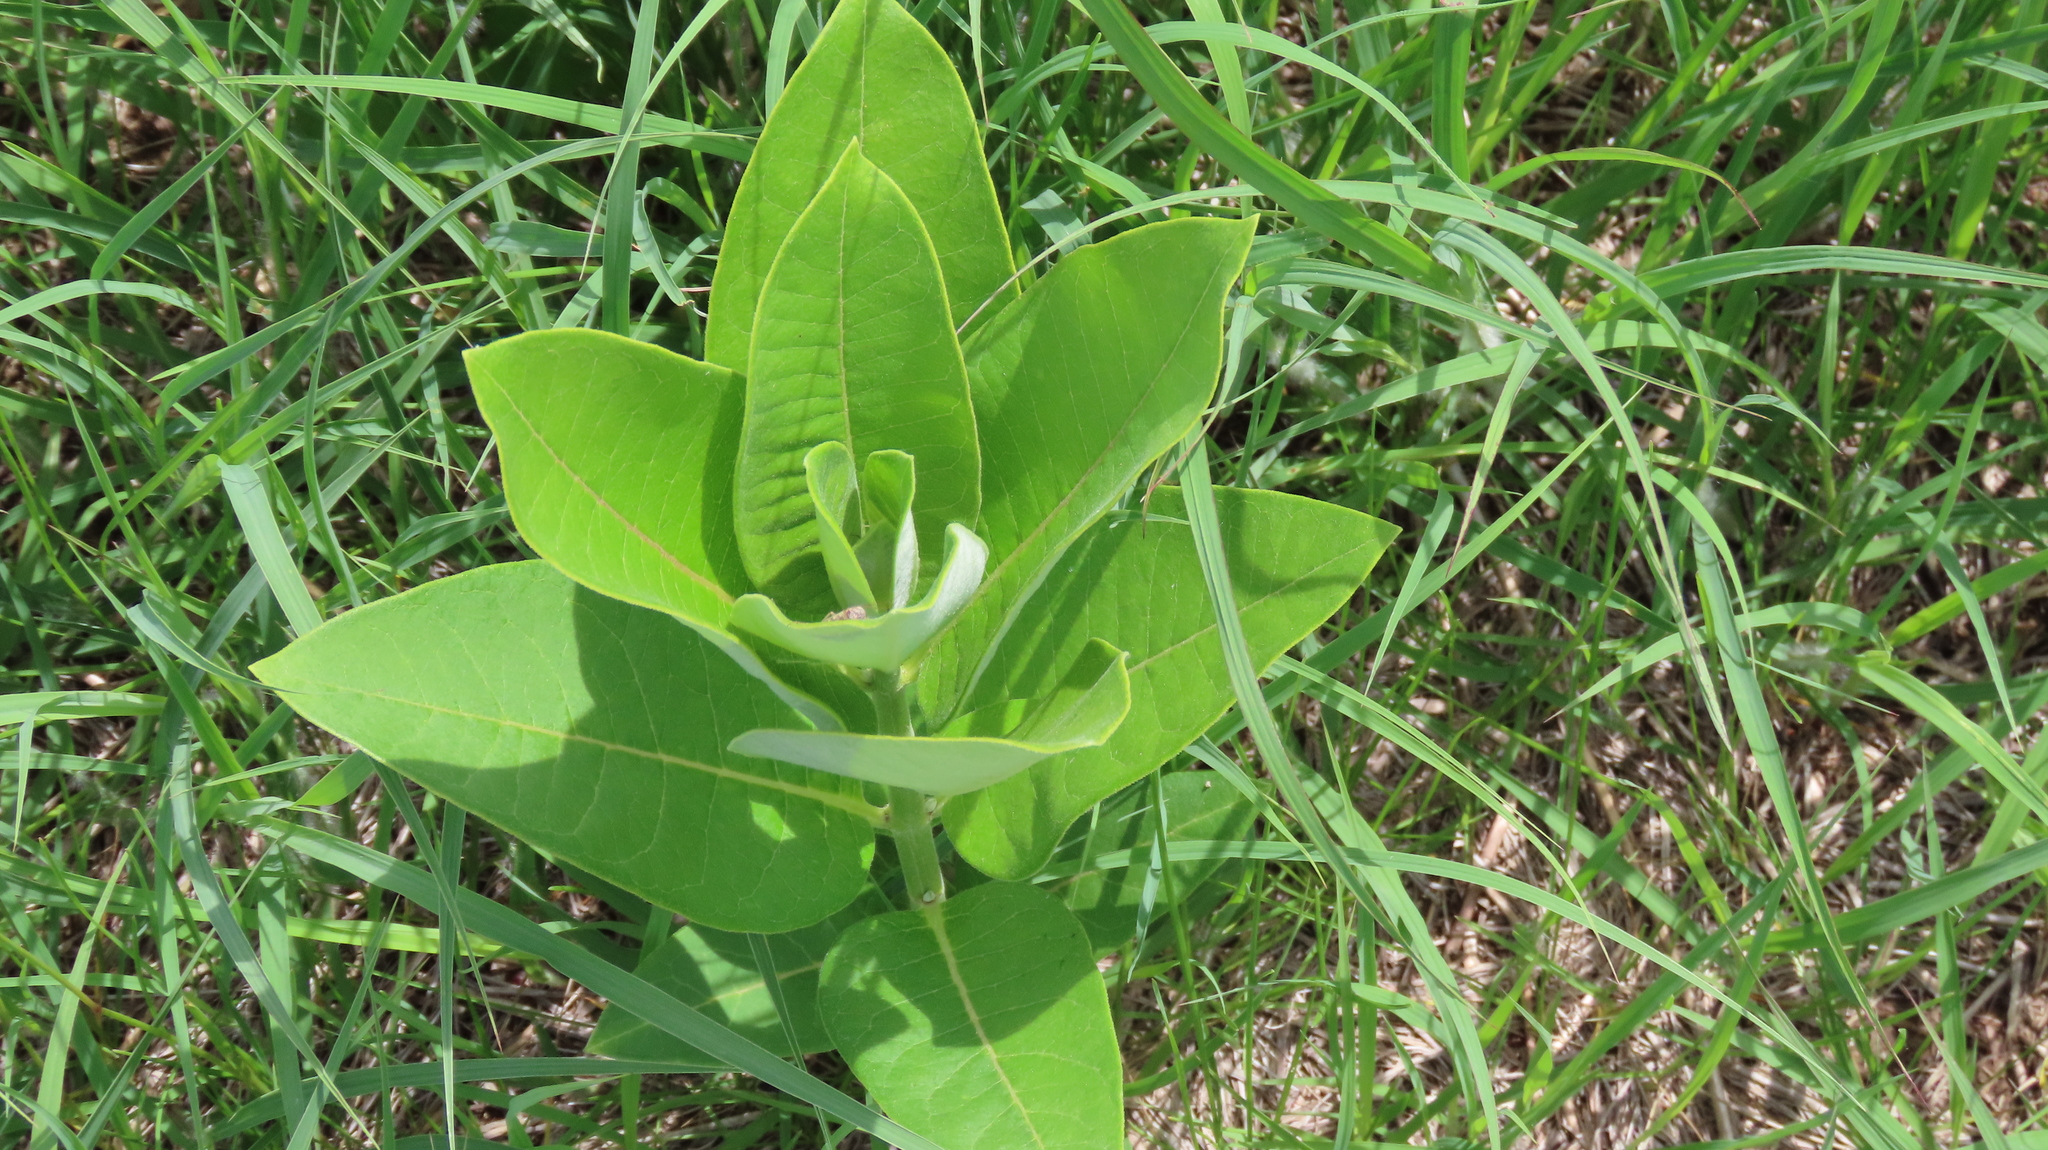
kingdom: Plantae
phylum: Tracheophyta
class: Magnoliopsida
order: Gentianales
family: Apocynaceae
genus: Asclepias
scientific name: Asclepias syriaca
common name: Common milkweed
